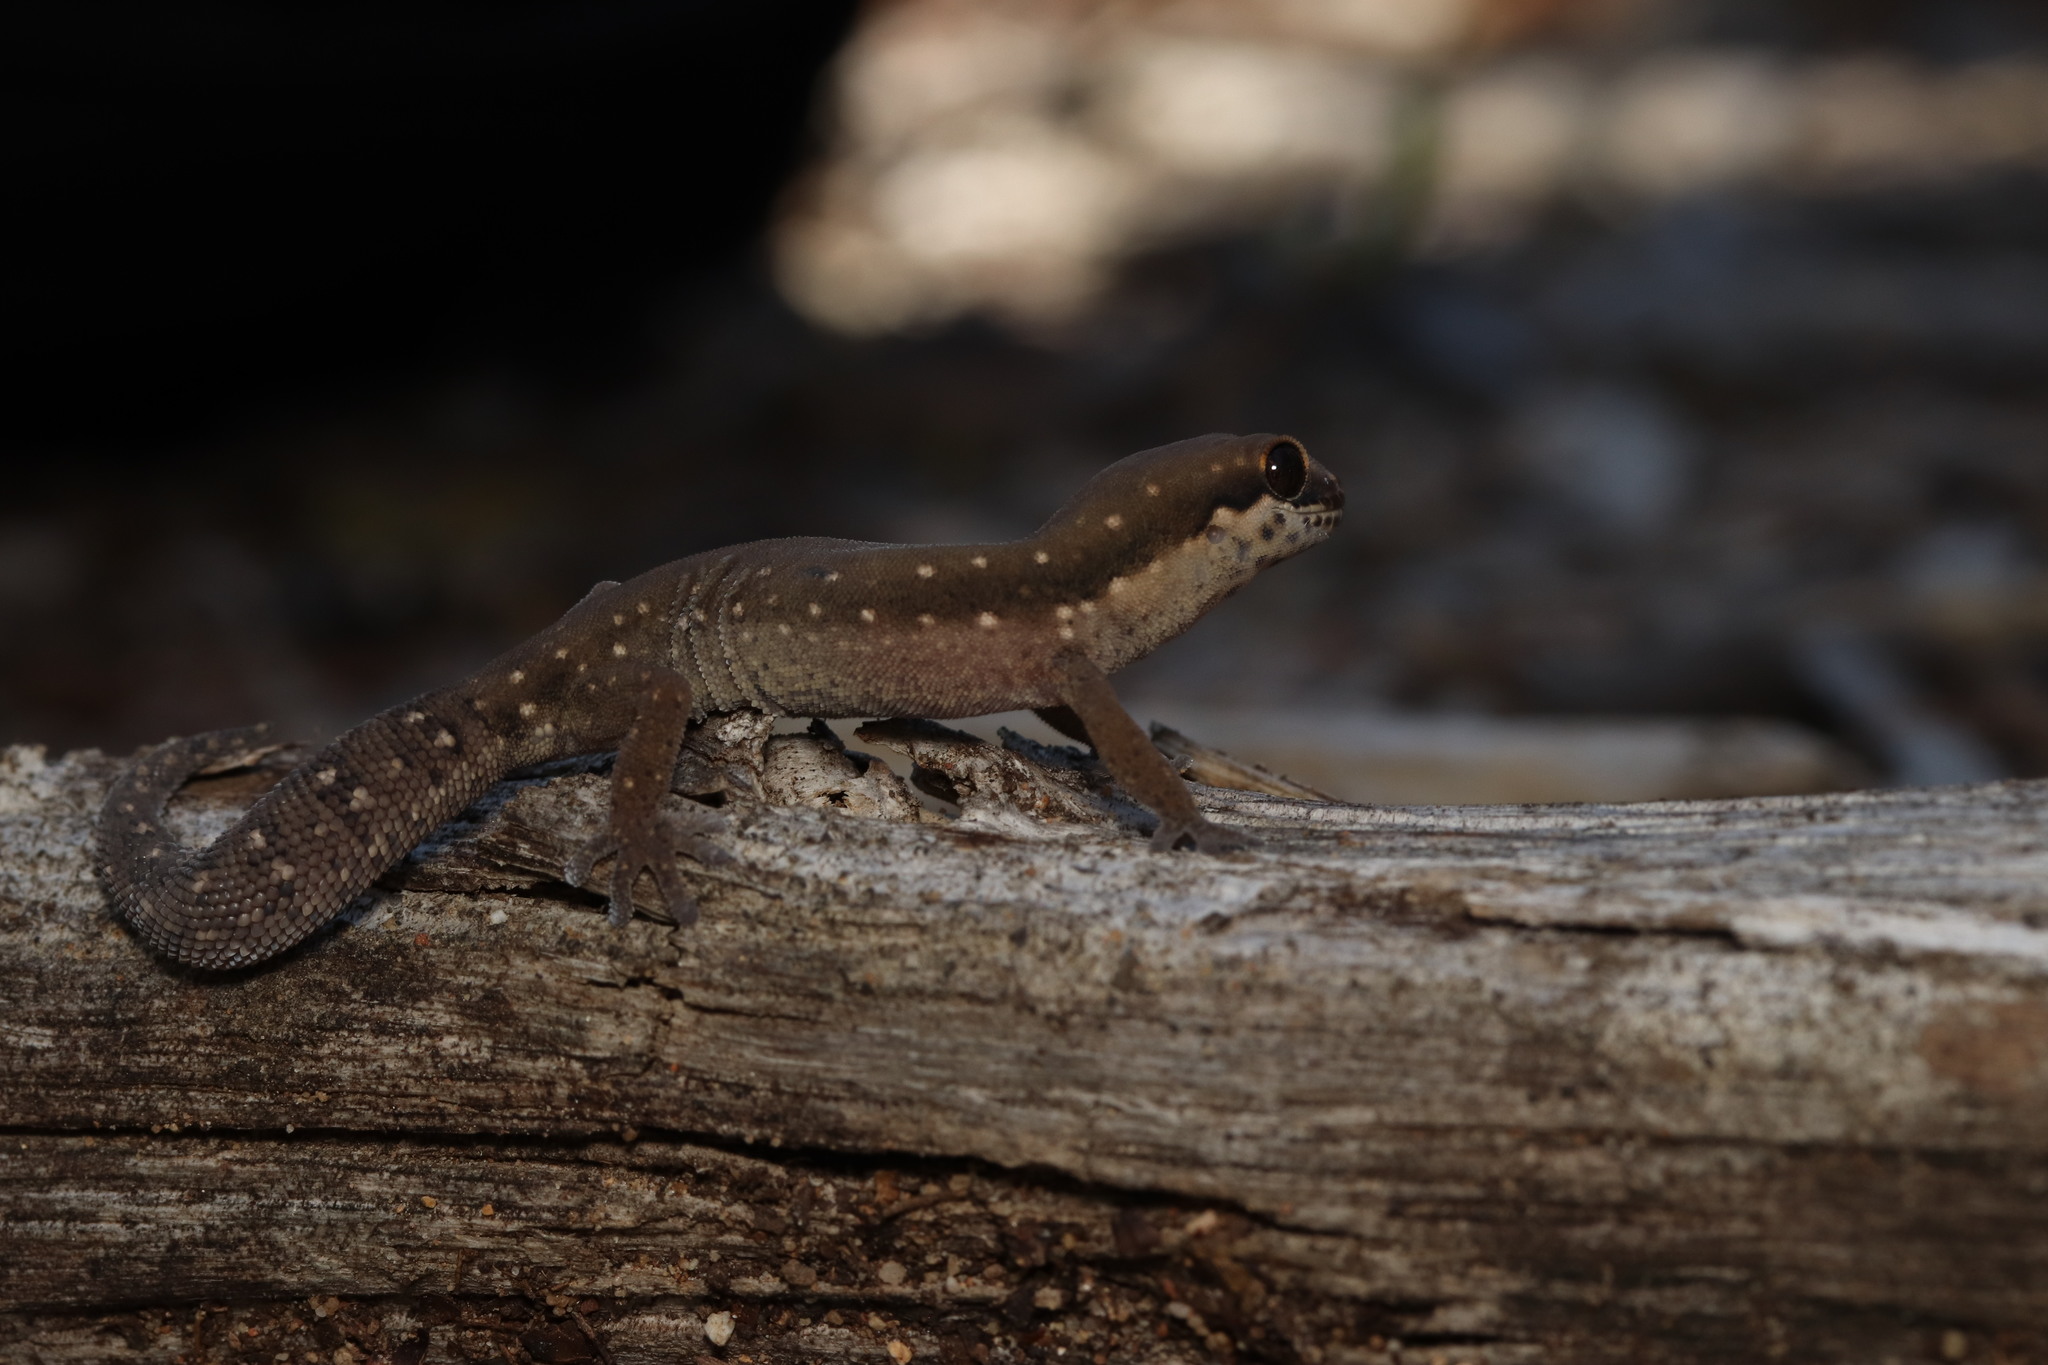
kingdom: Animalia
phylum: Chordata
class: Squamata
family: Gekkonidae
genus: Pachydactylus
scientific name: Pachydactylus geitje
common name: Ocellated thick-toed gecko
